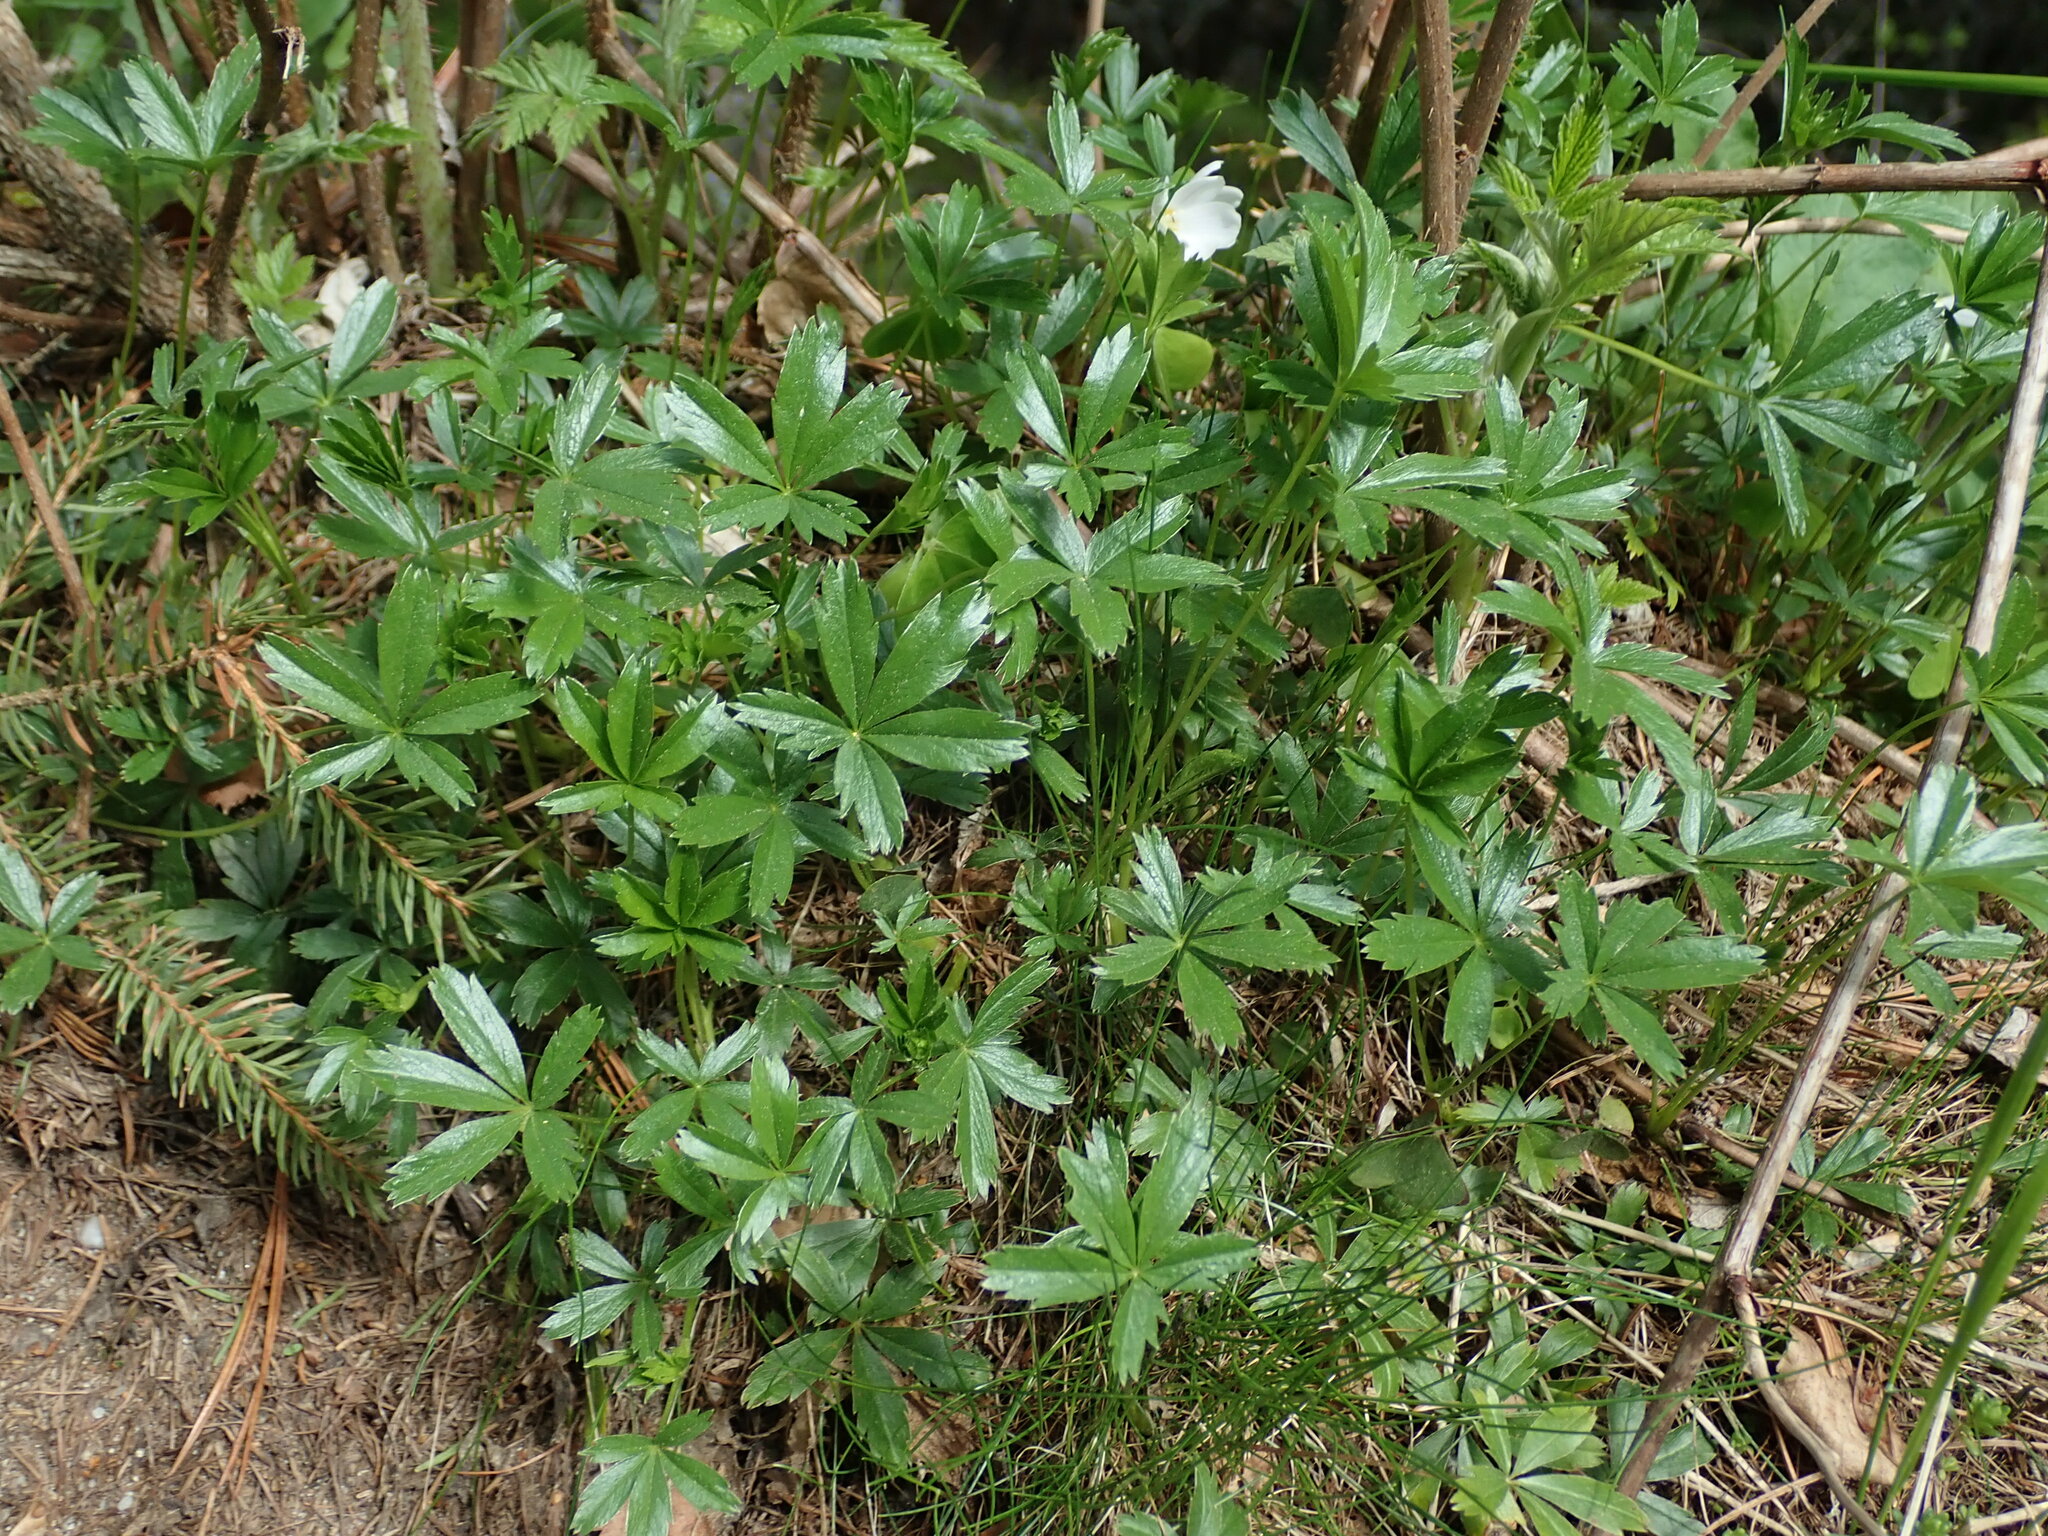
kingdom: Plantae
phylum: Tracheophyta
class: Magnoliopsida
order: Rosales
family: Rosaceae
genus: Potentilla
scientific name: Potentilla aurea
